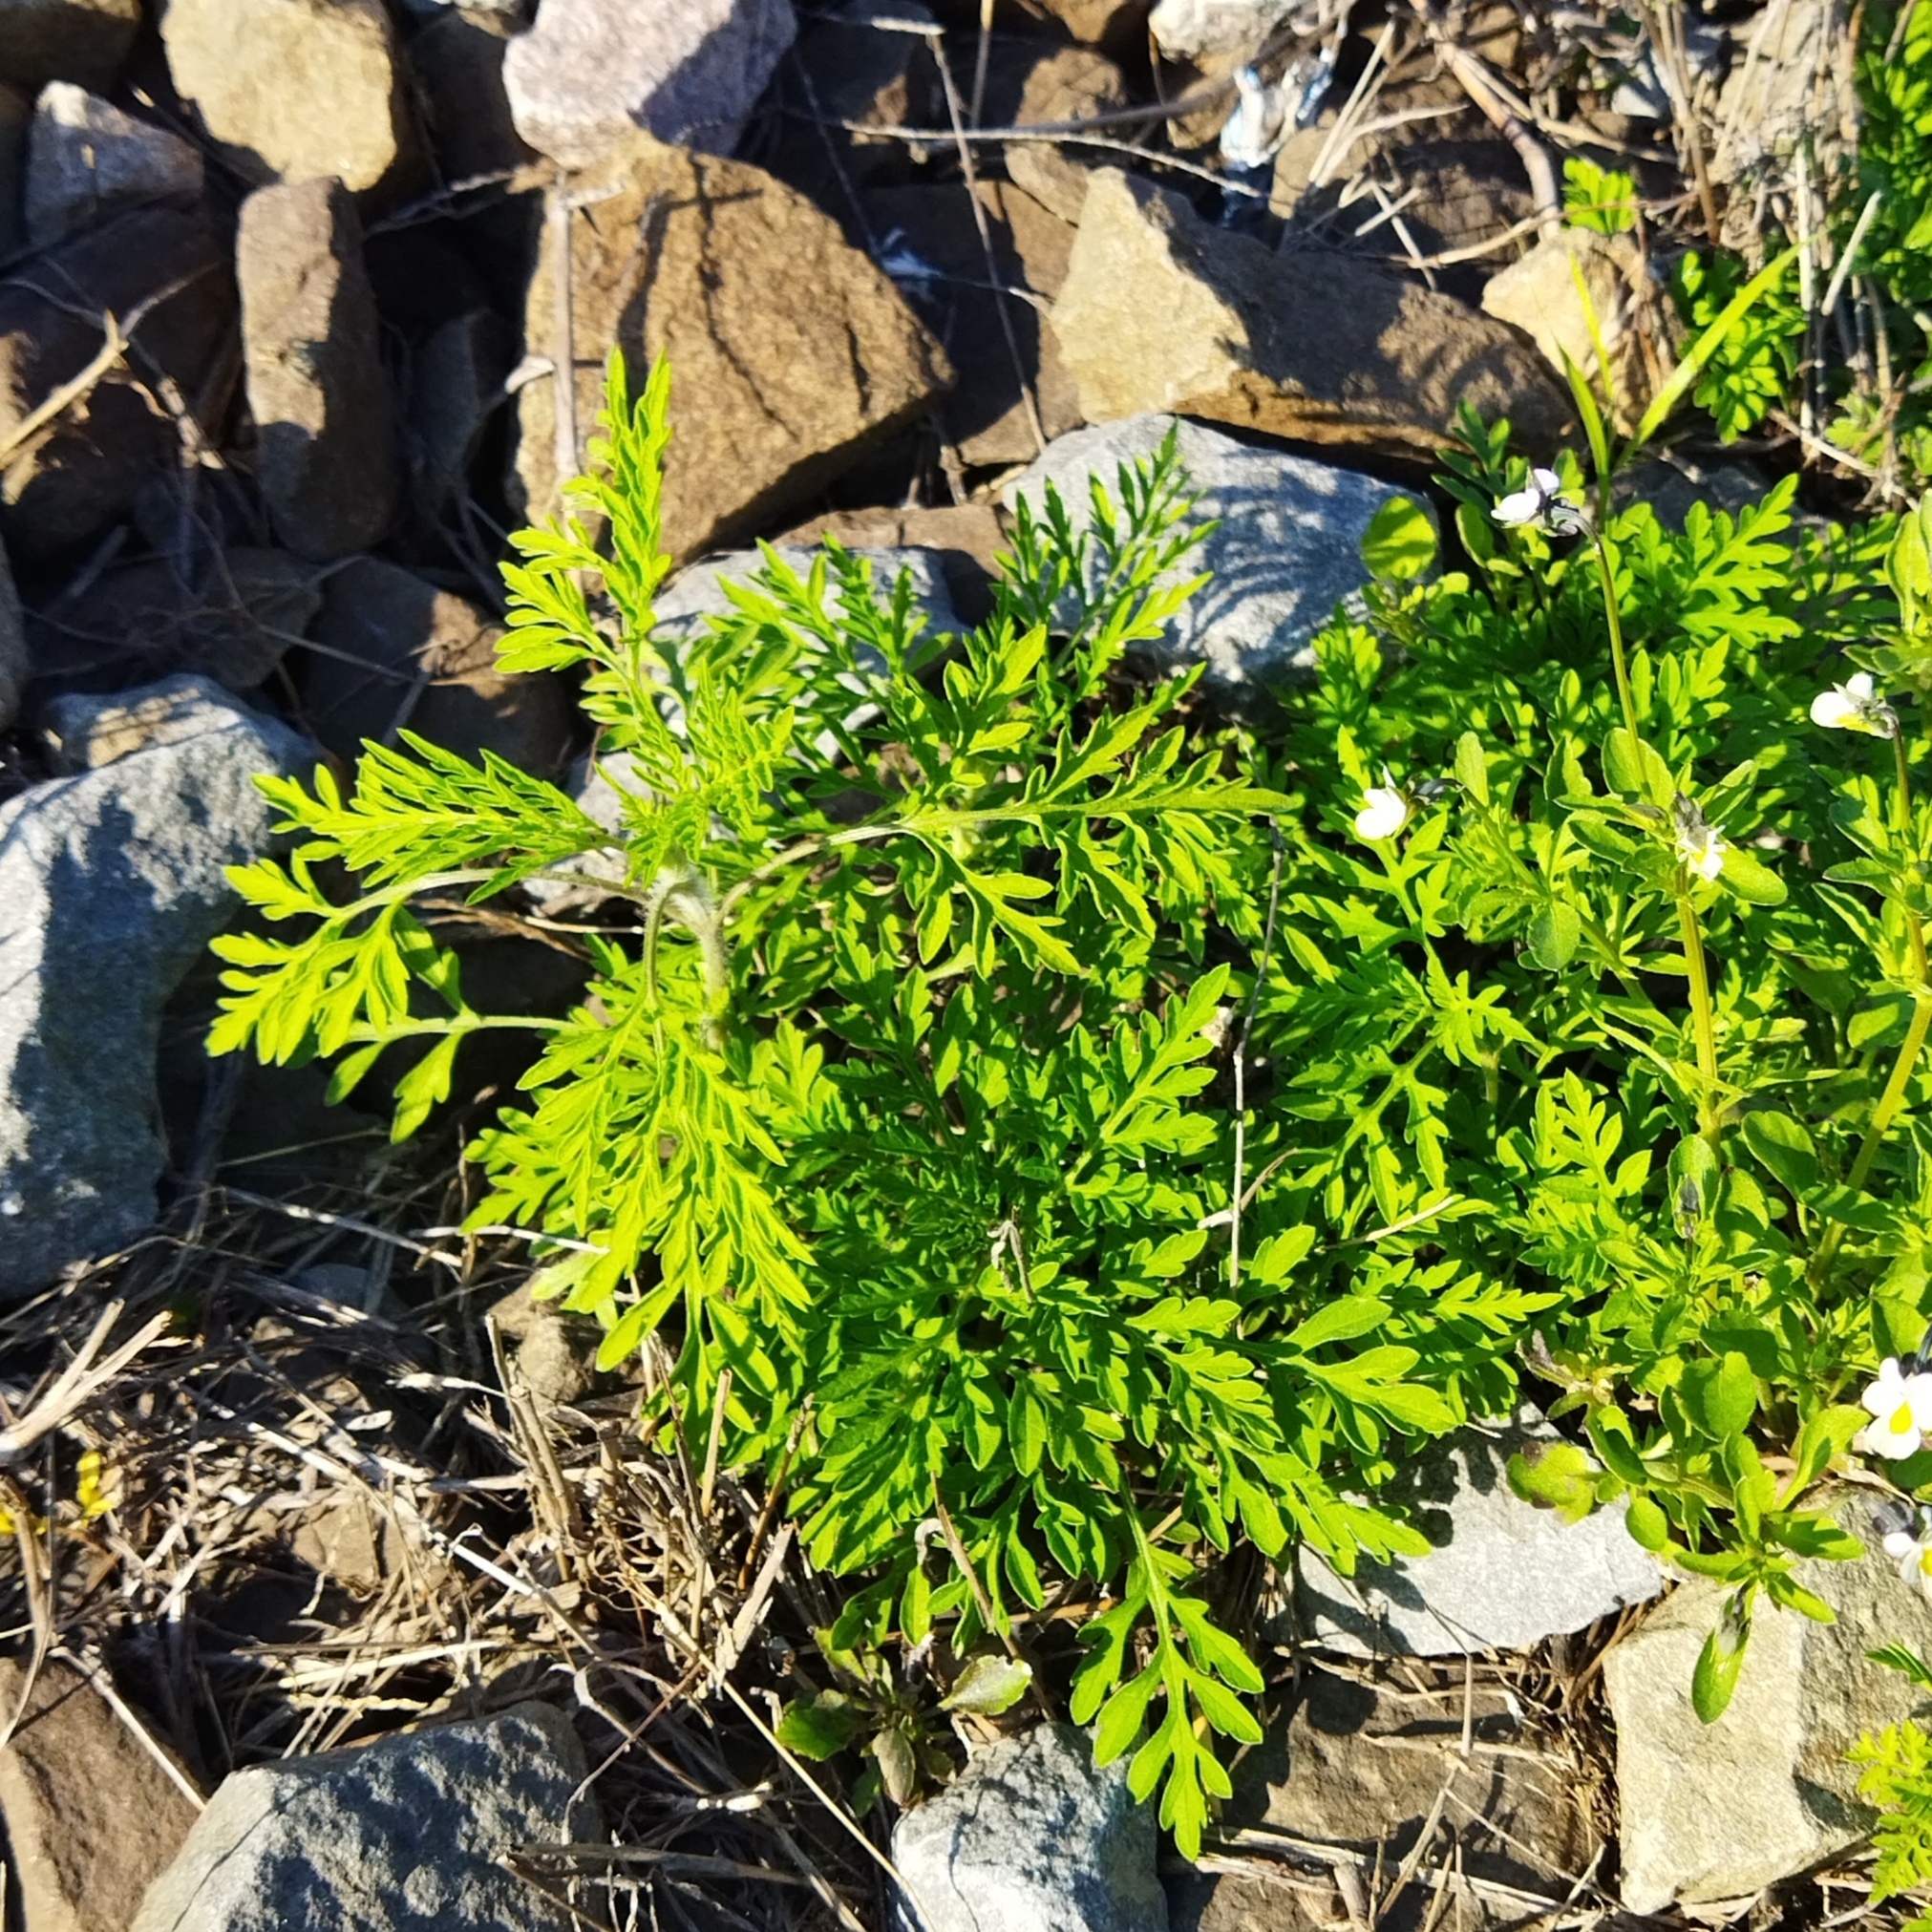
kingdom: Plantae
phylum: Tracheophyta
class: Magnoliopsida
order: Asterales
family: Asteraceae
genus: Ambrosia
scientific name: Ambrosia artemisiifolia
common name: Annual ragweed
